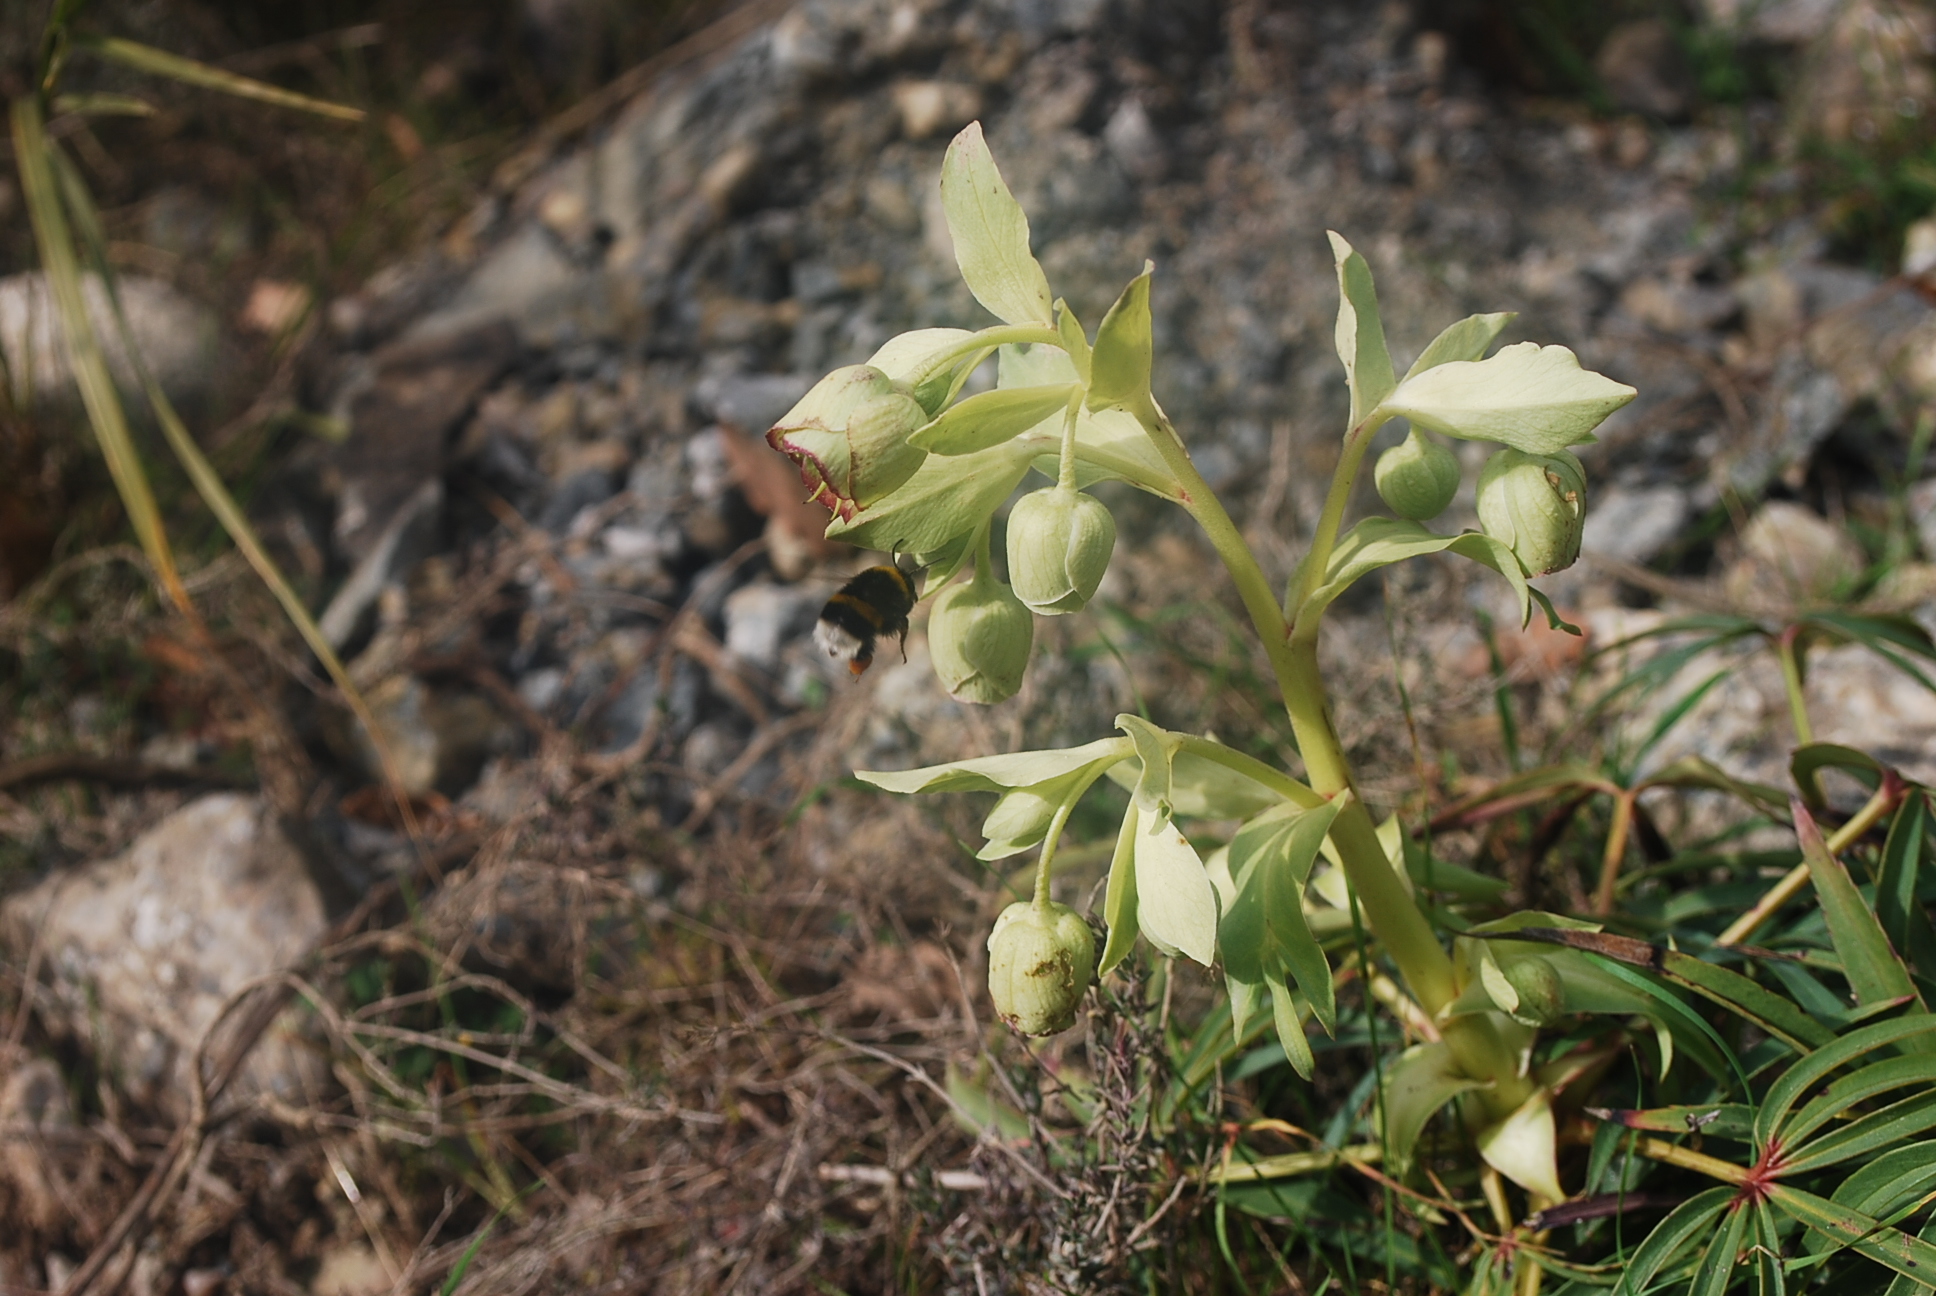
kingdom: Plantae
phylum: Tracheophyta
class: Magnoliopsida
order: Ranunculales
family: Ranunculaceae
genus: Helleborus
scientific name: Helleborus foetidus
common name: Stinking hellebore
